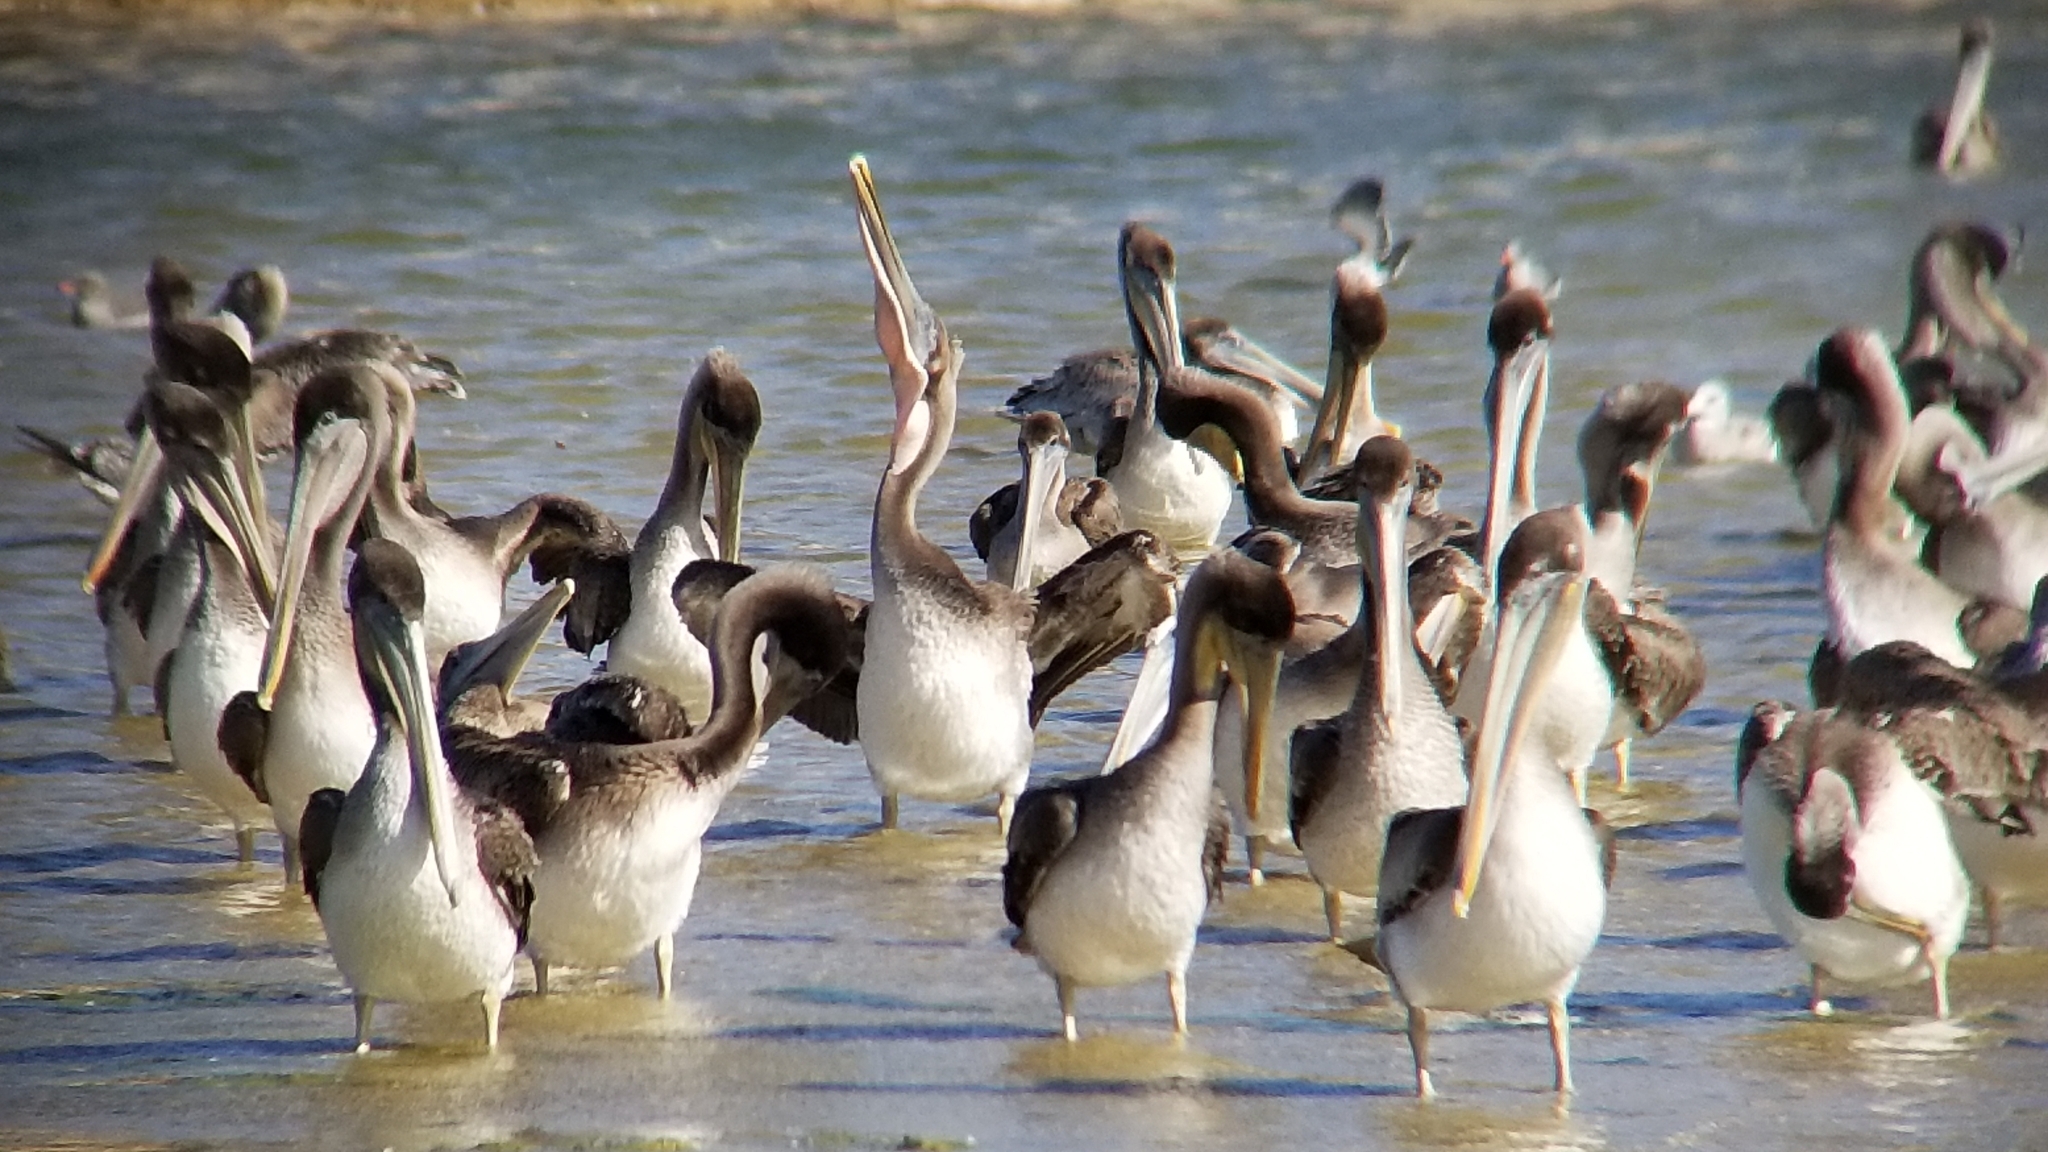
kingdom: Animalia
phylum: Chordata
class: Aves
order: Pelecaniformes
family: Pelecanidae
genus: Pelecanus
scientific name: Pelecanus occidentalis
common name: Brown pelican
